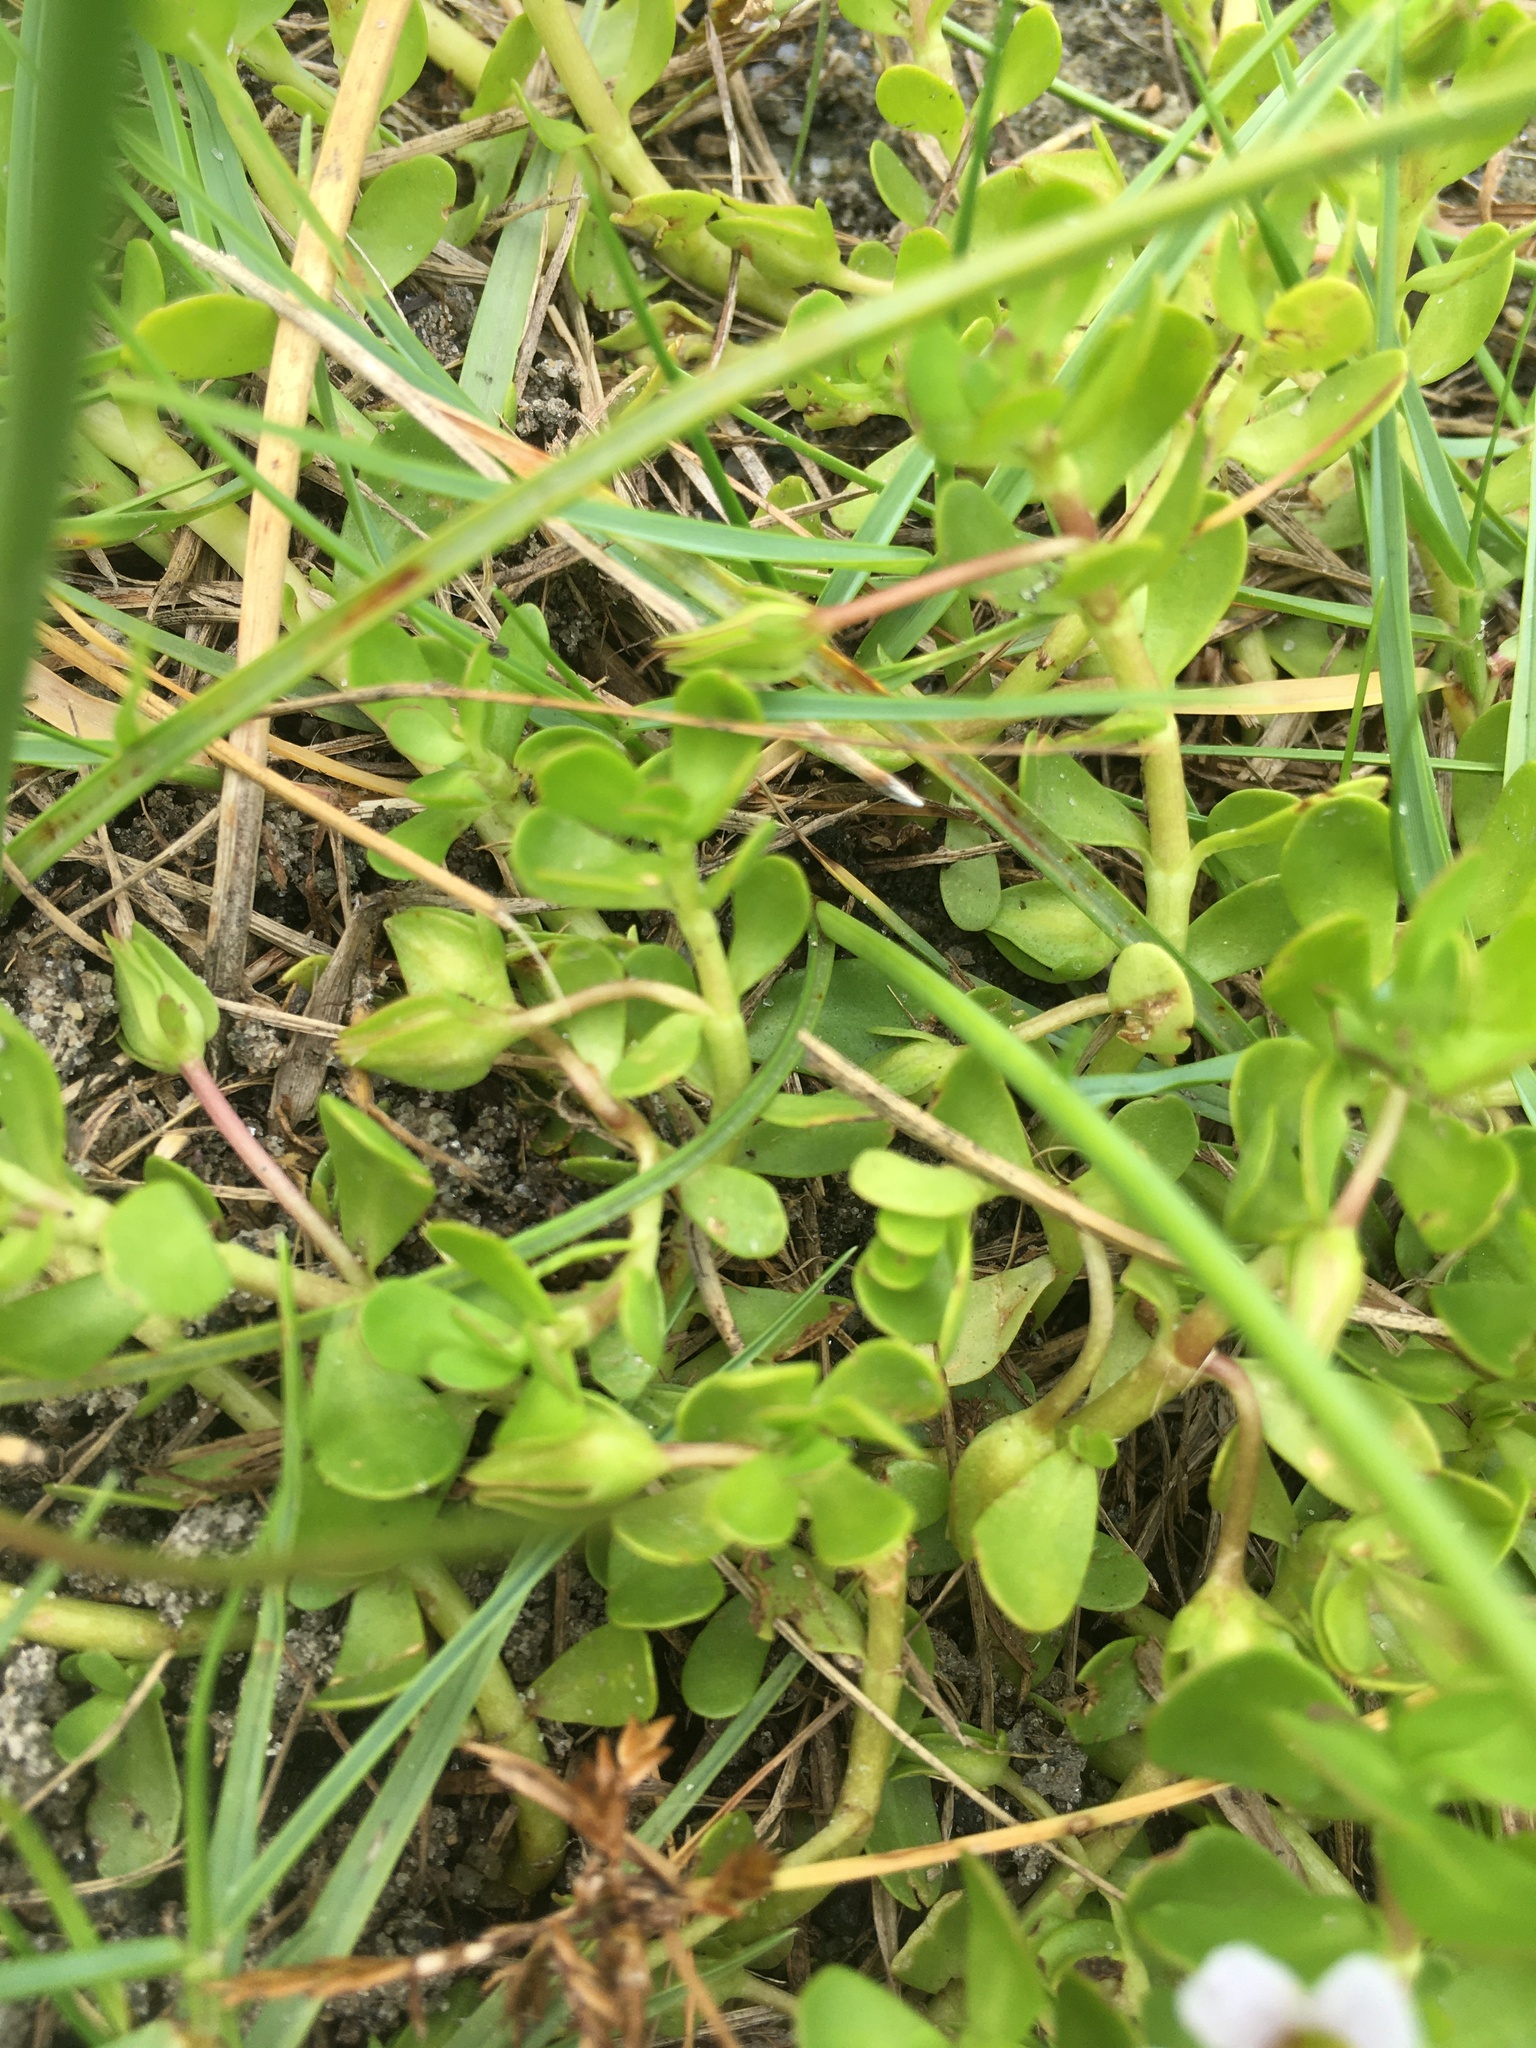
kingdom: Plantae
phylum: Tracheophyta
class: Magnoliopsida
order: Lamiales
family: Plantaginaceae
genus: Bacopa
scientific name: Bacopa monnieri
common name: Indian-pennywort
